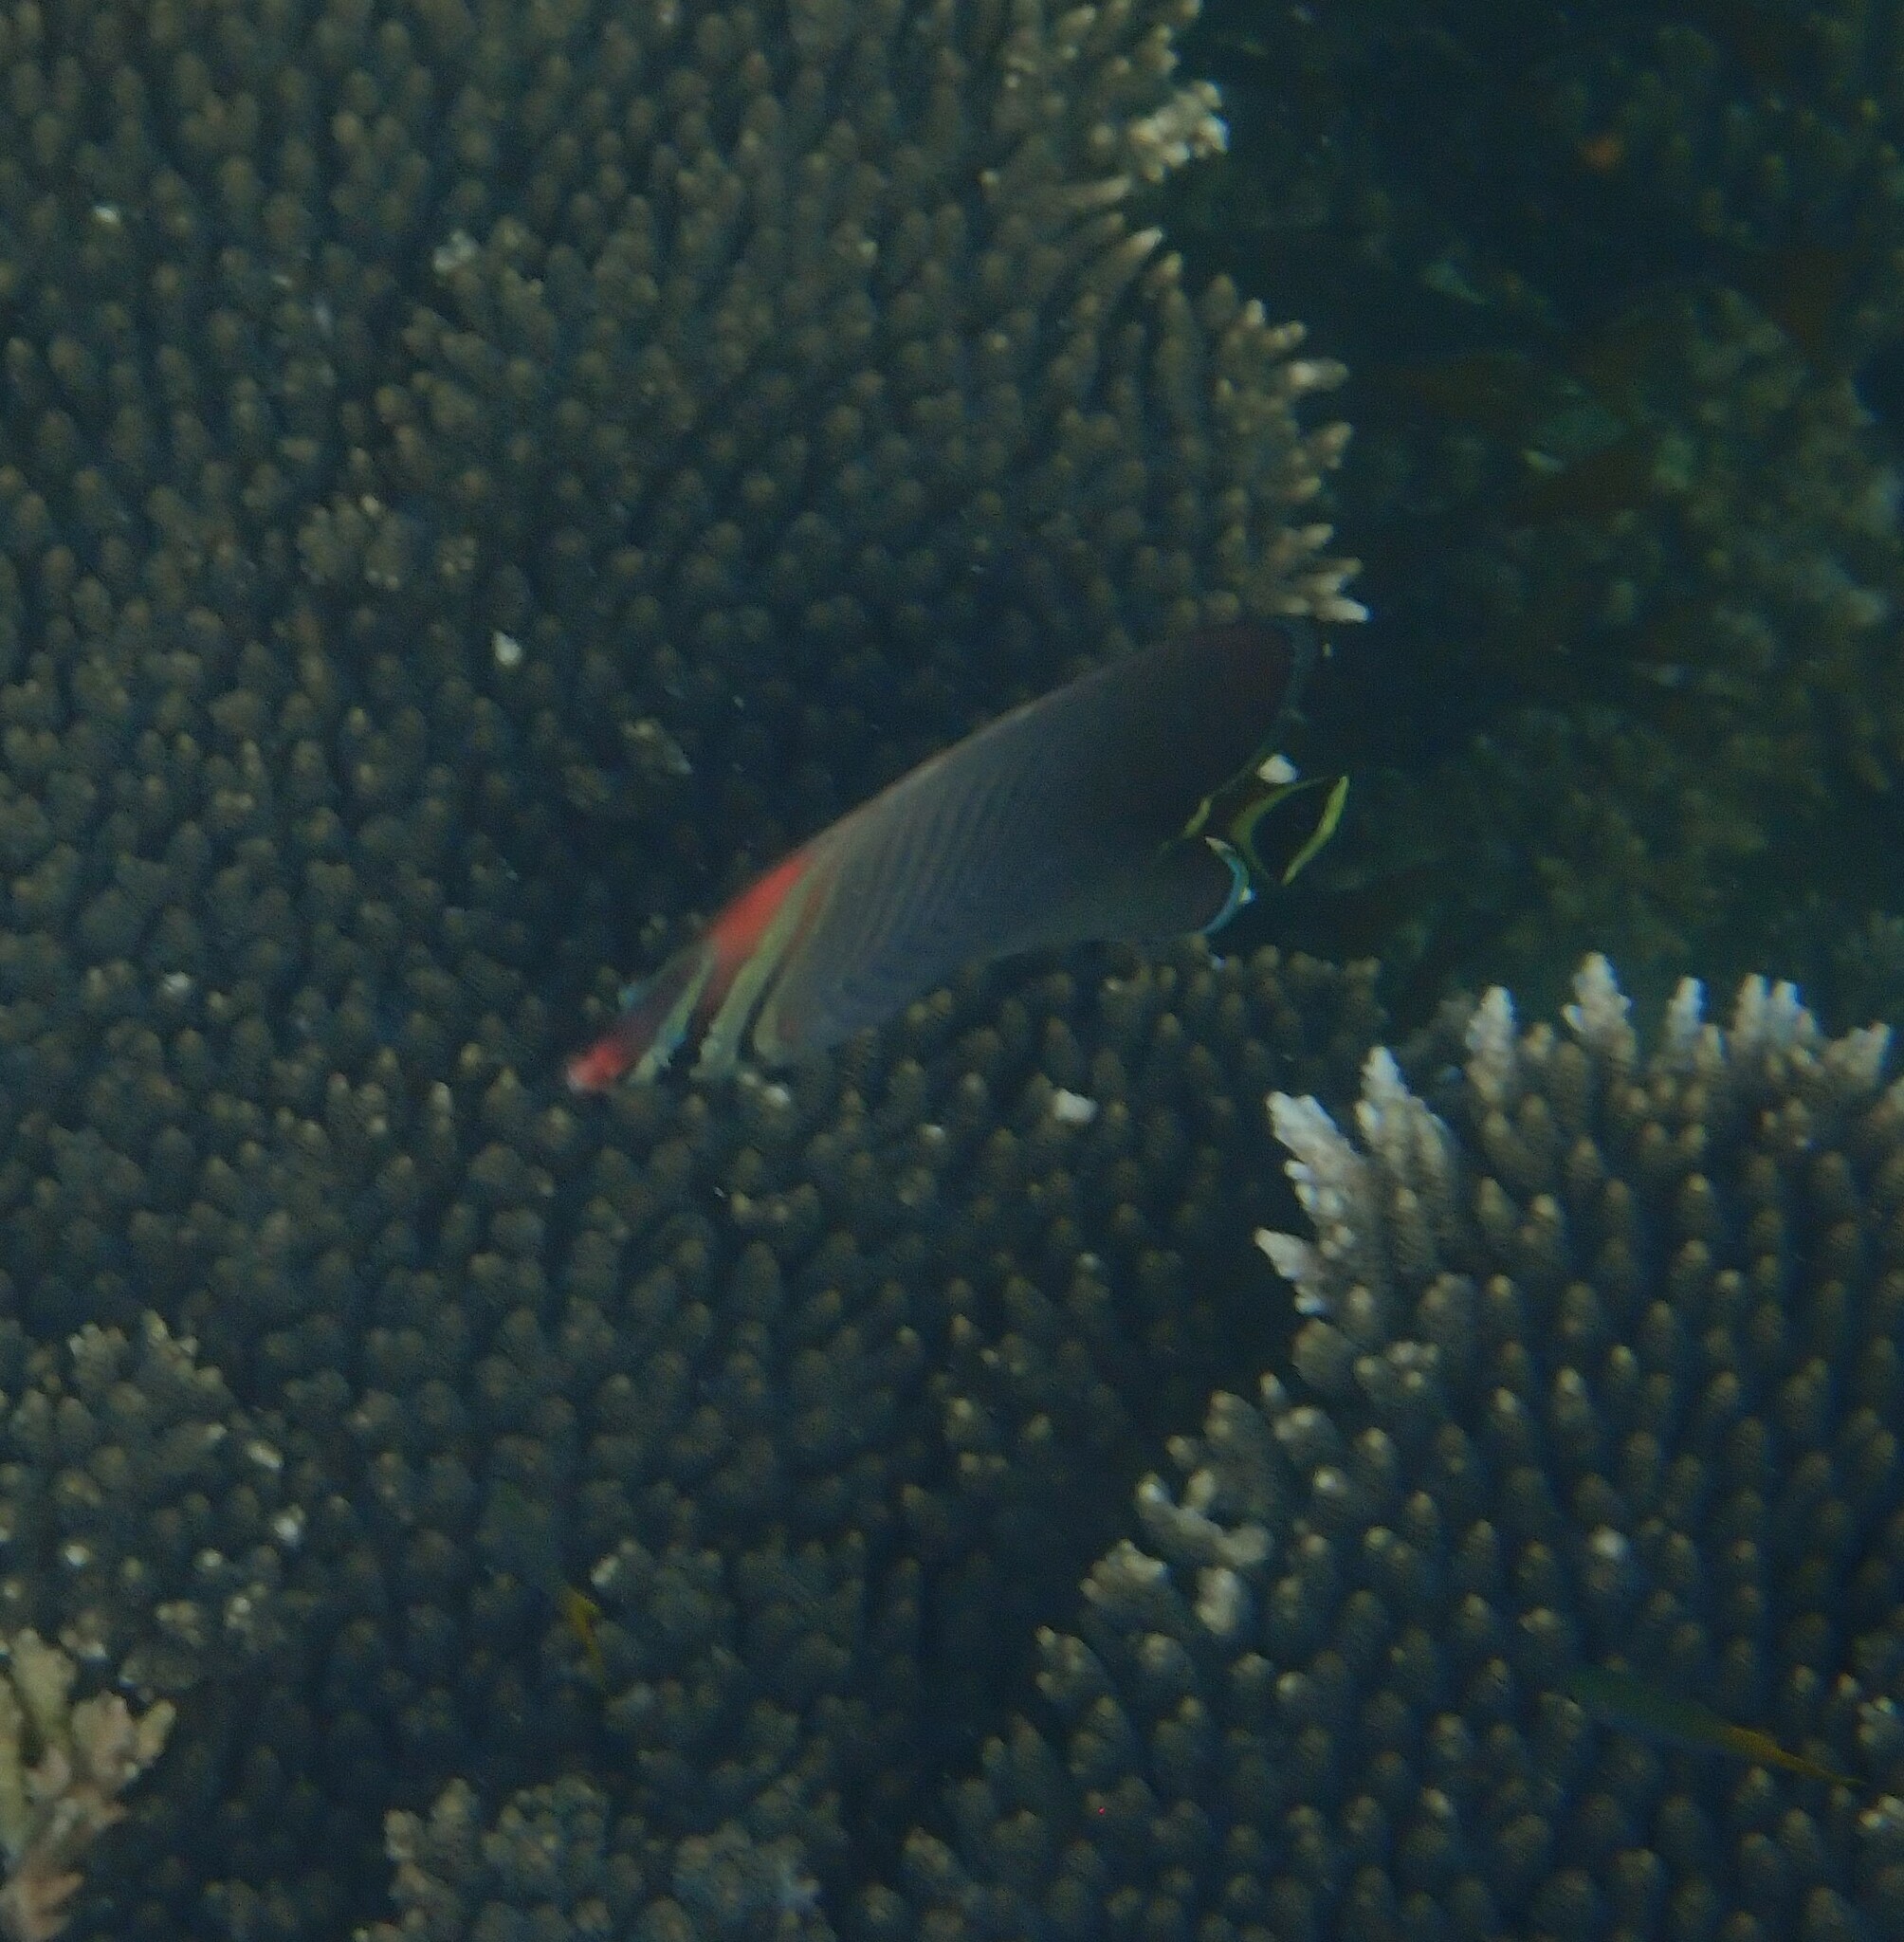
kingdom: Animalia
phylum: Chordata
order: Perciformes
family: Chaetodontidae
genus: Chaetodon
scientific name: Chaetodon triangulum
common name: Triangular butterflyfish
